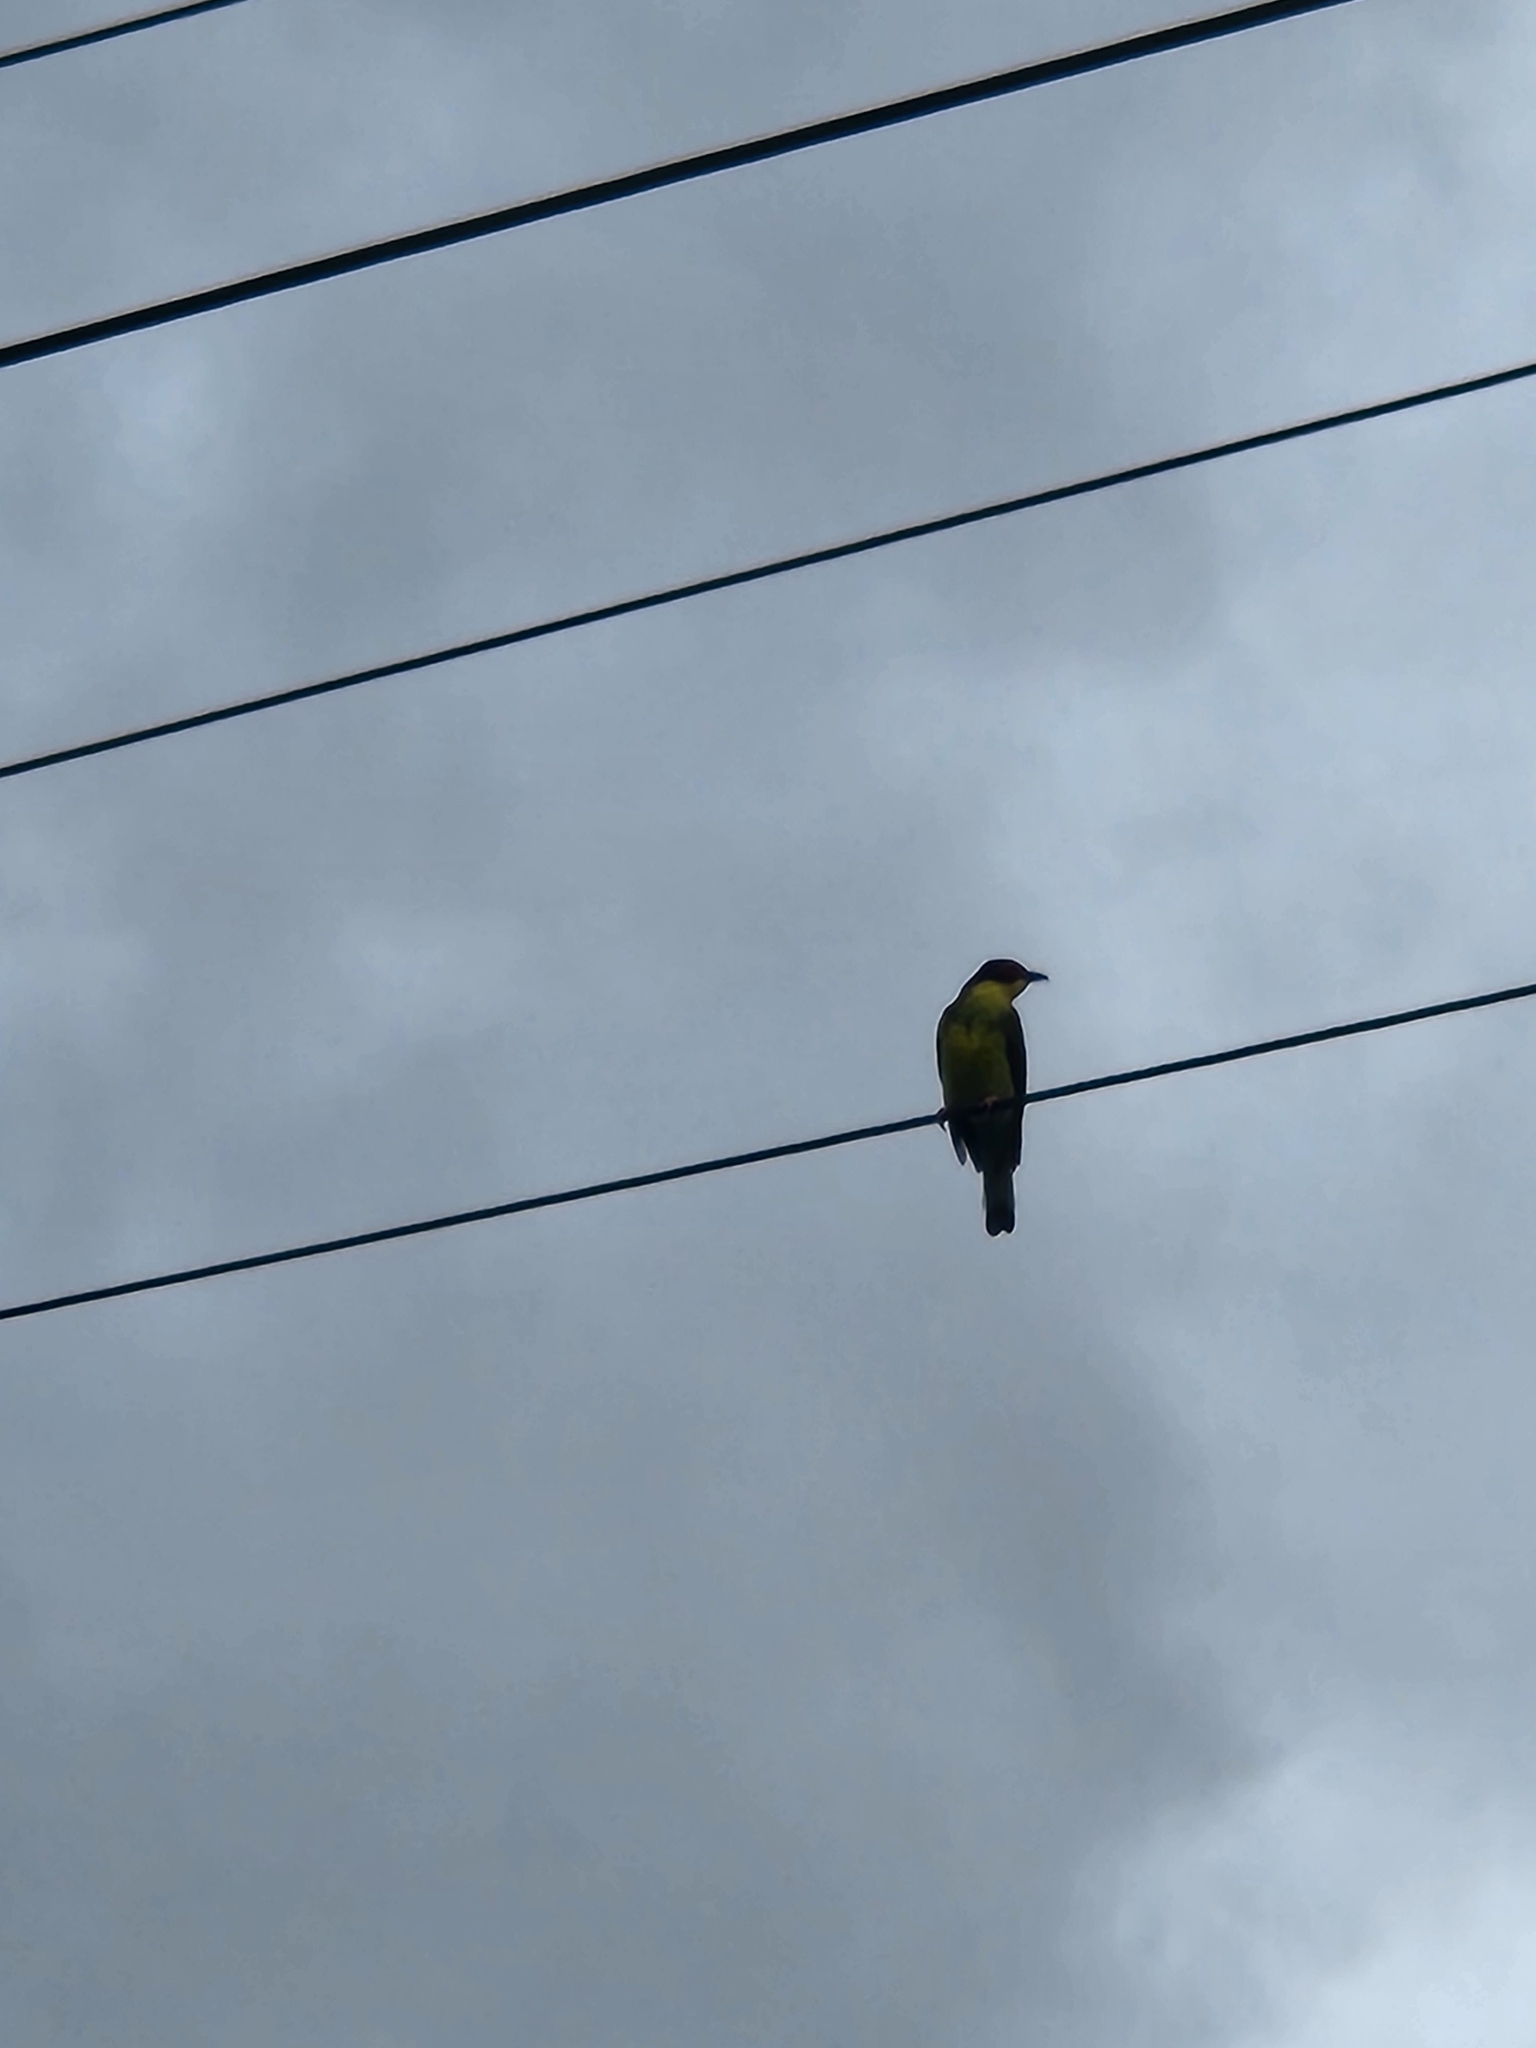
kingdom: Animalia
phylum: Chordata
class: Aves
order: Passeriformes
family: Oriolidae
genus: Sphecotheres
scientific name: Sphecotheres vieilloti
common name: Australasian figbird
